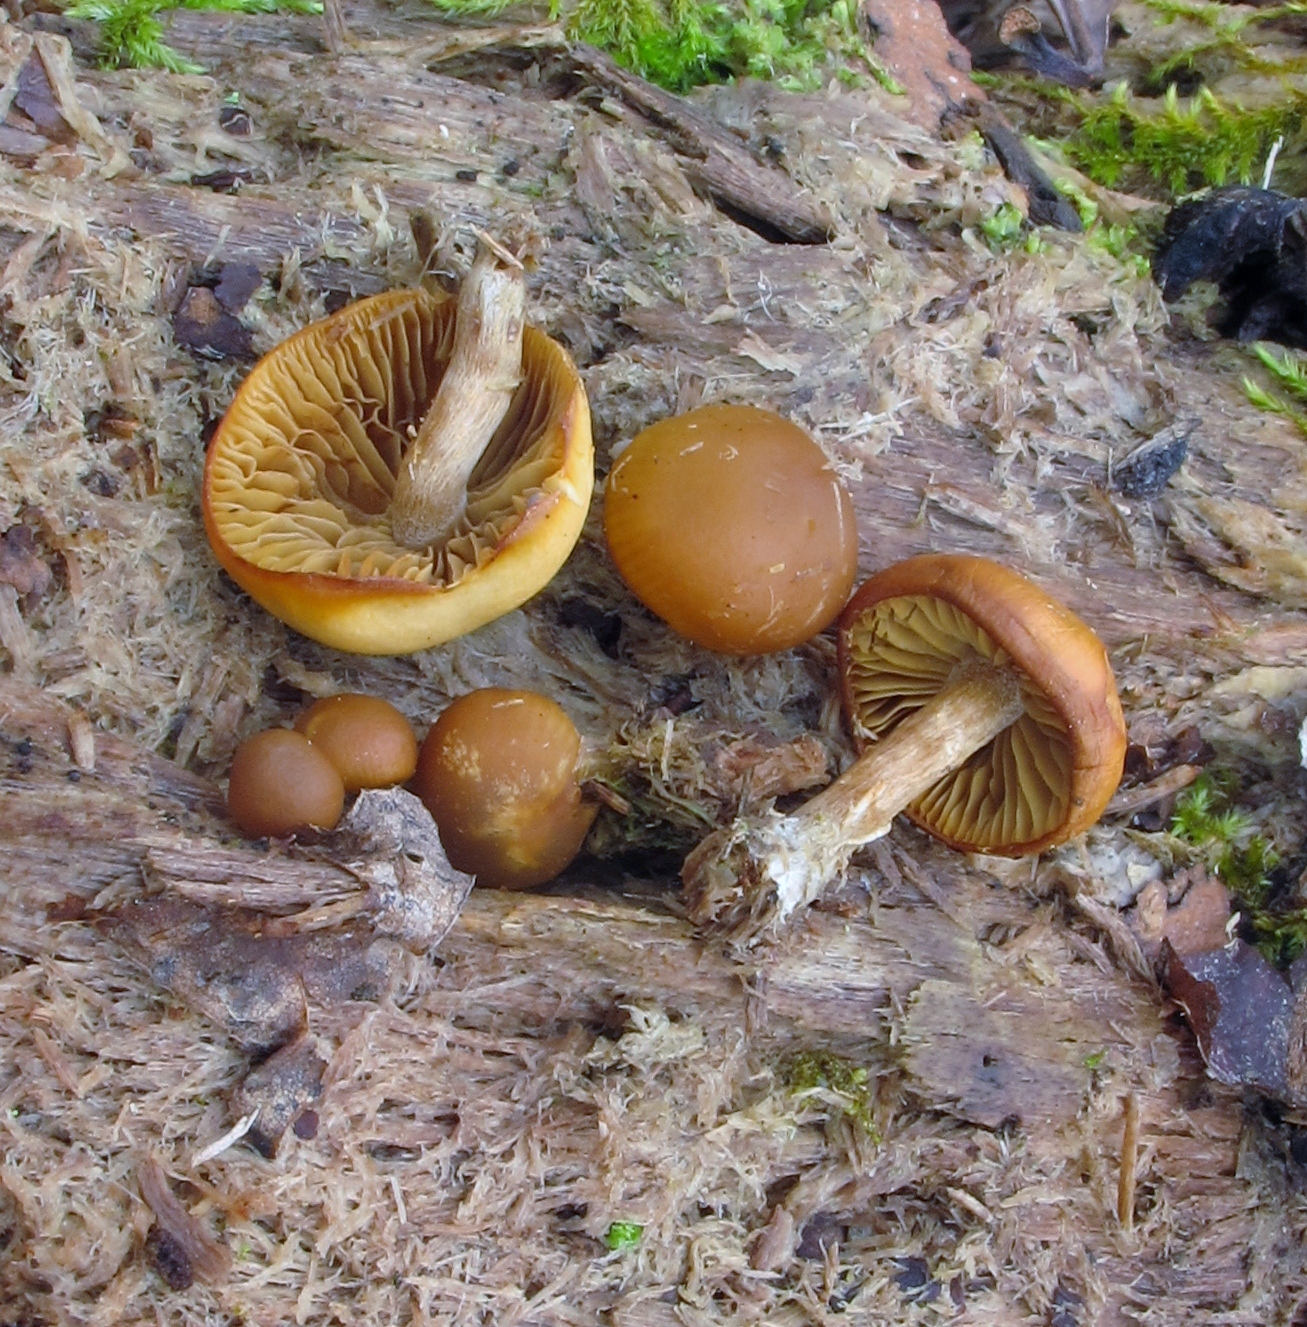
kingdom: Fungi
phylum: Basidiomycota
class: Agaricomycetes
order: Agaricales
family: Hymenogastraceae
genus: Galerina
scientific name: Galerina marginata
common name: Funeral bell
